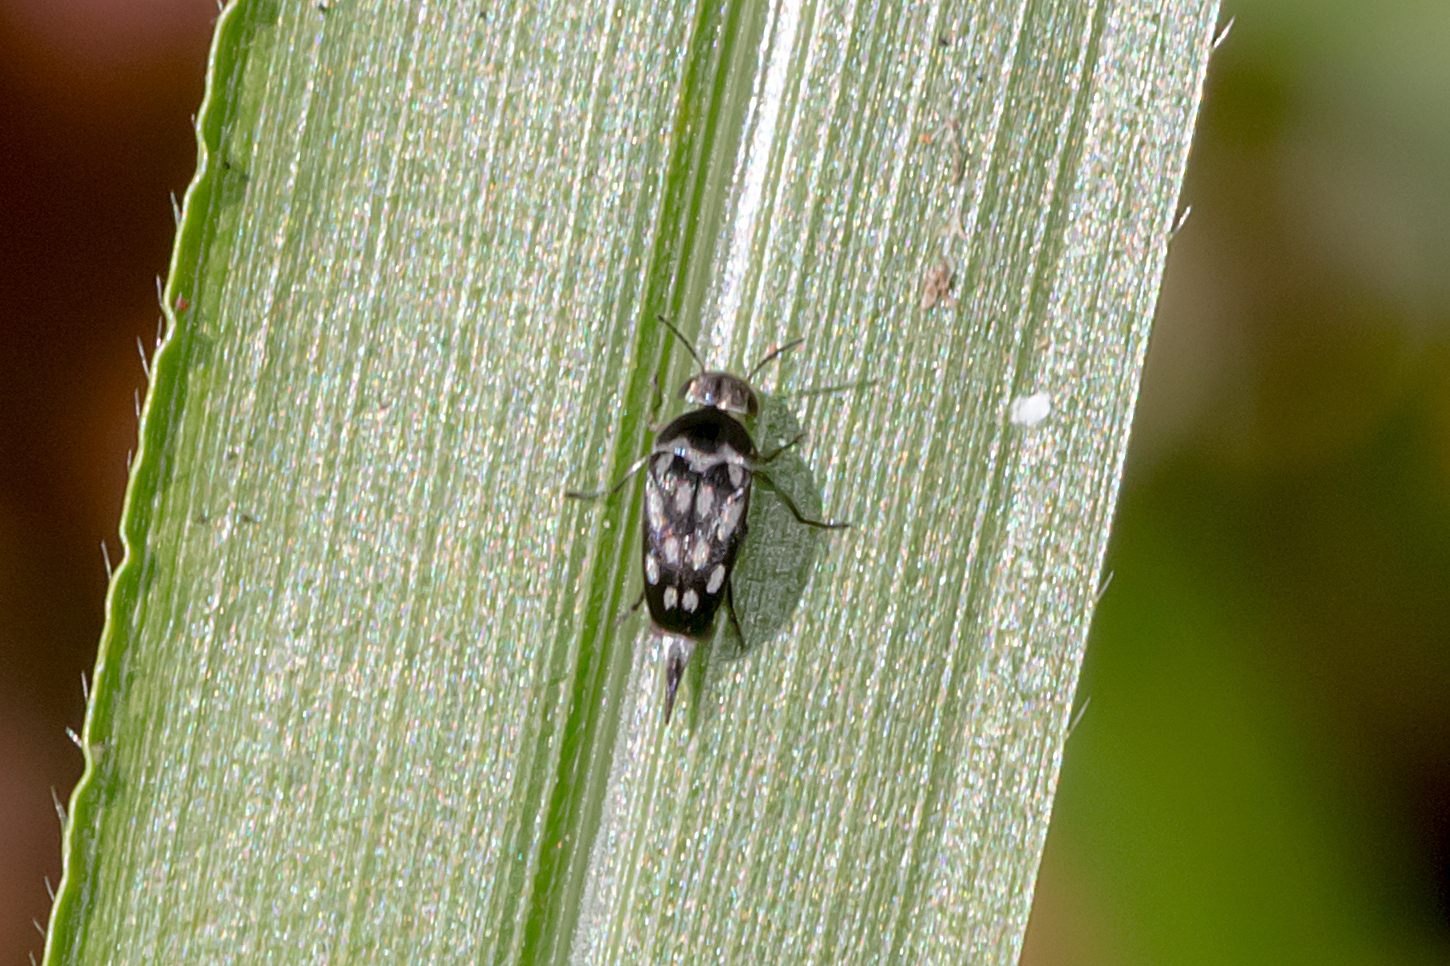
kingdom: Animalia
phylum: Arthropoda
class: Insecta
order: Coleoptera
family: Mordellidae
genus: Mordella
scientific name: Mordella
